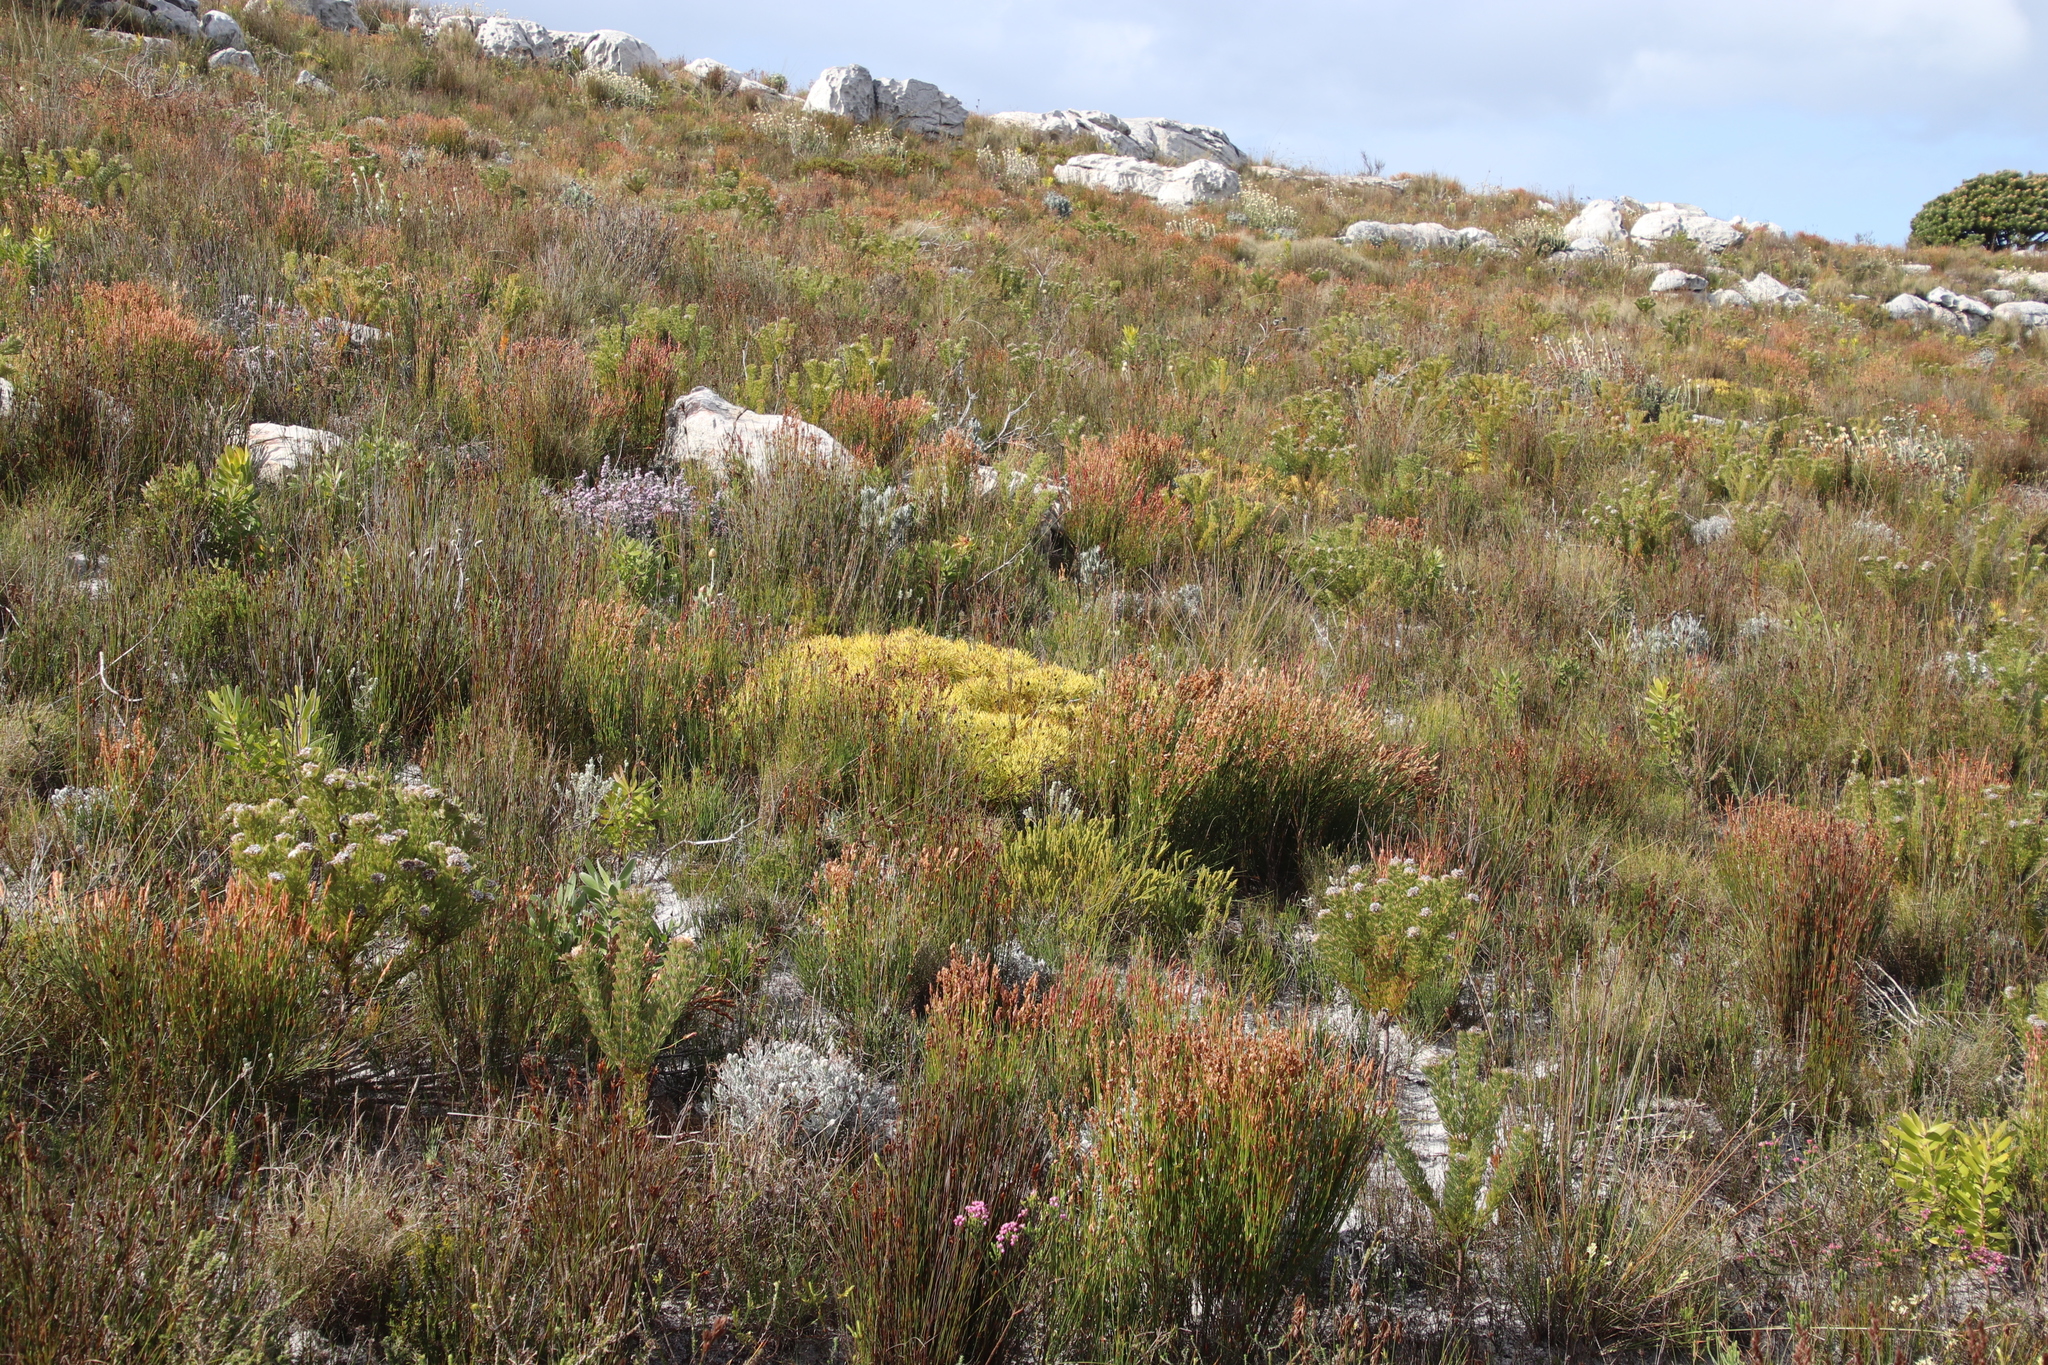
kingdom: Plantae
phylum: Tracheophyta
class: Magnoliopsida
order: Proteales
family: Proteaceae
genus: Leucadendron
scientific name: Leucadendron salignum
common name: Common sunshine conebush
